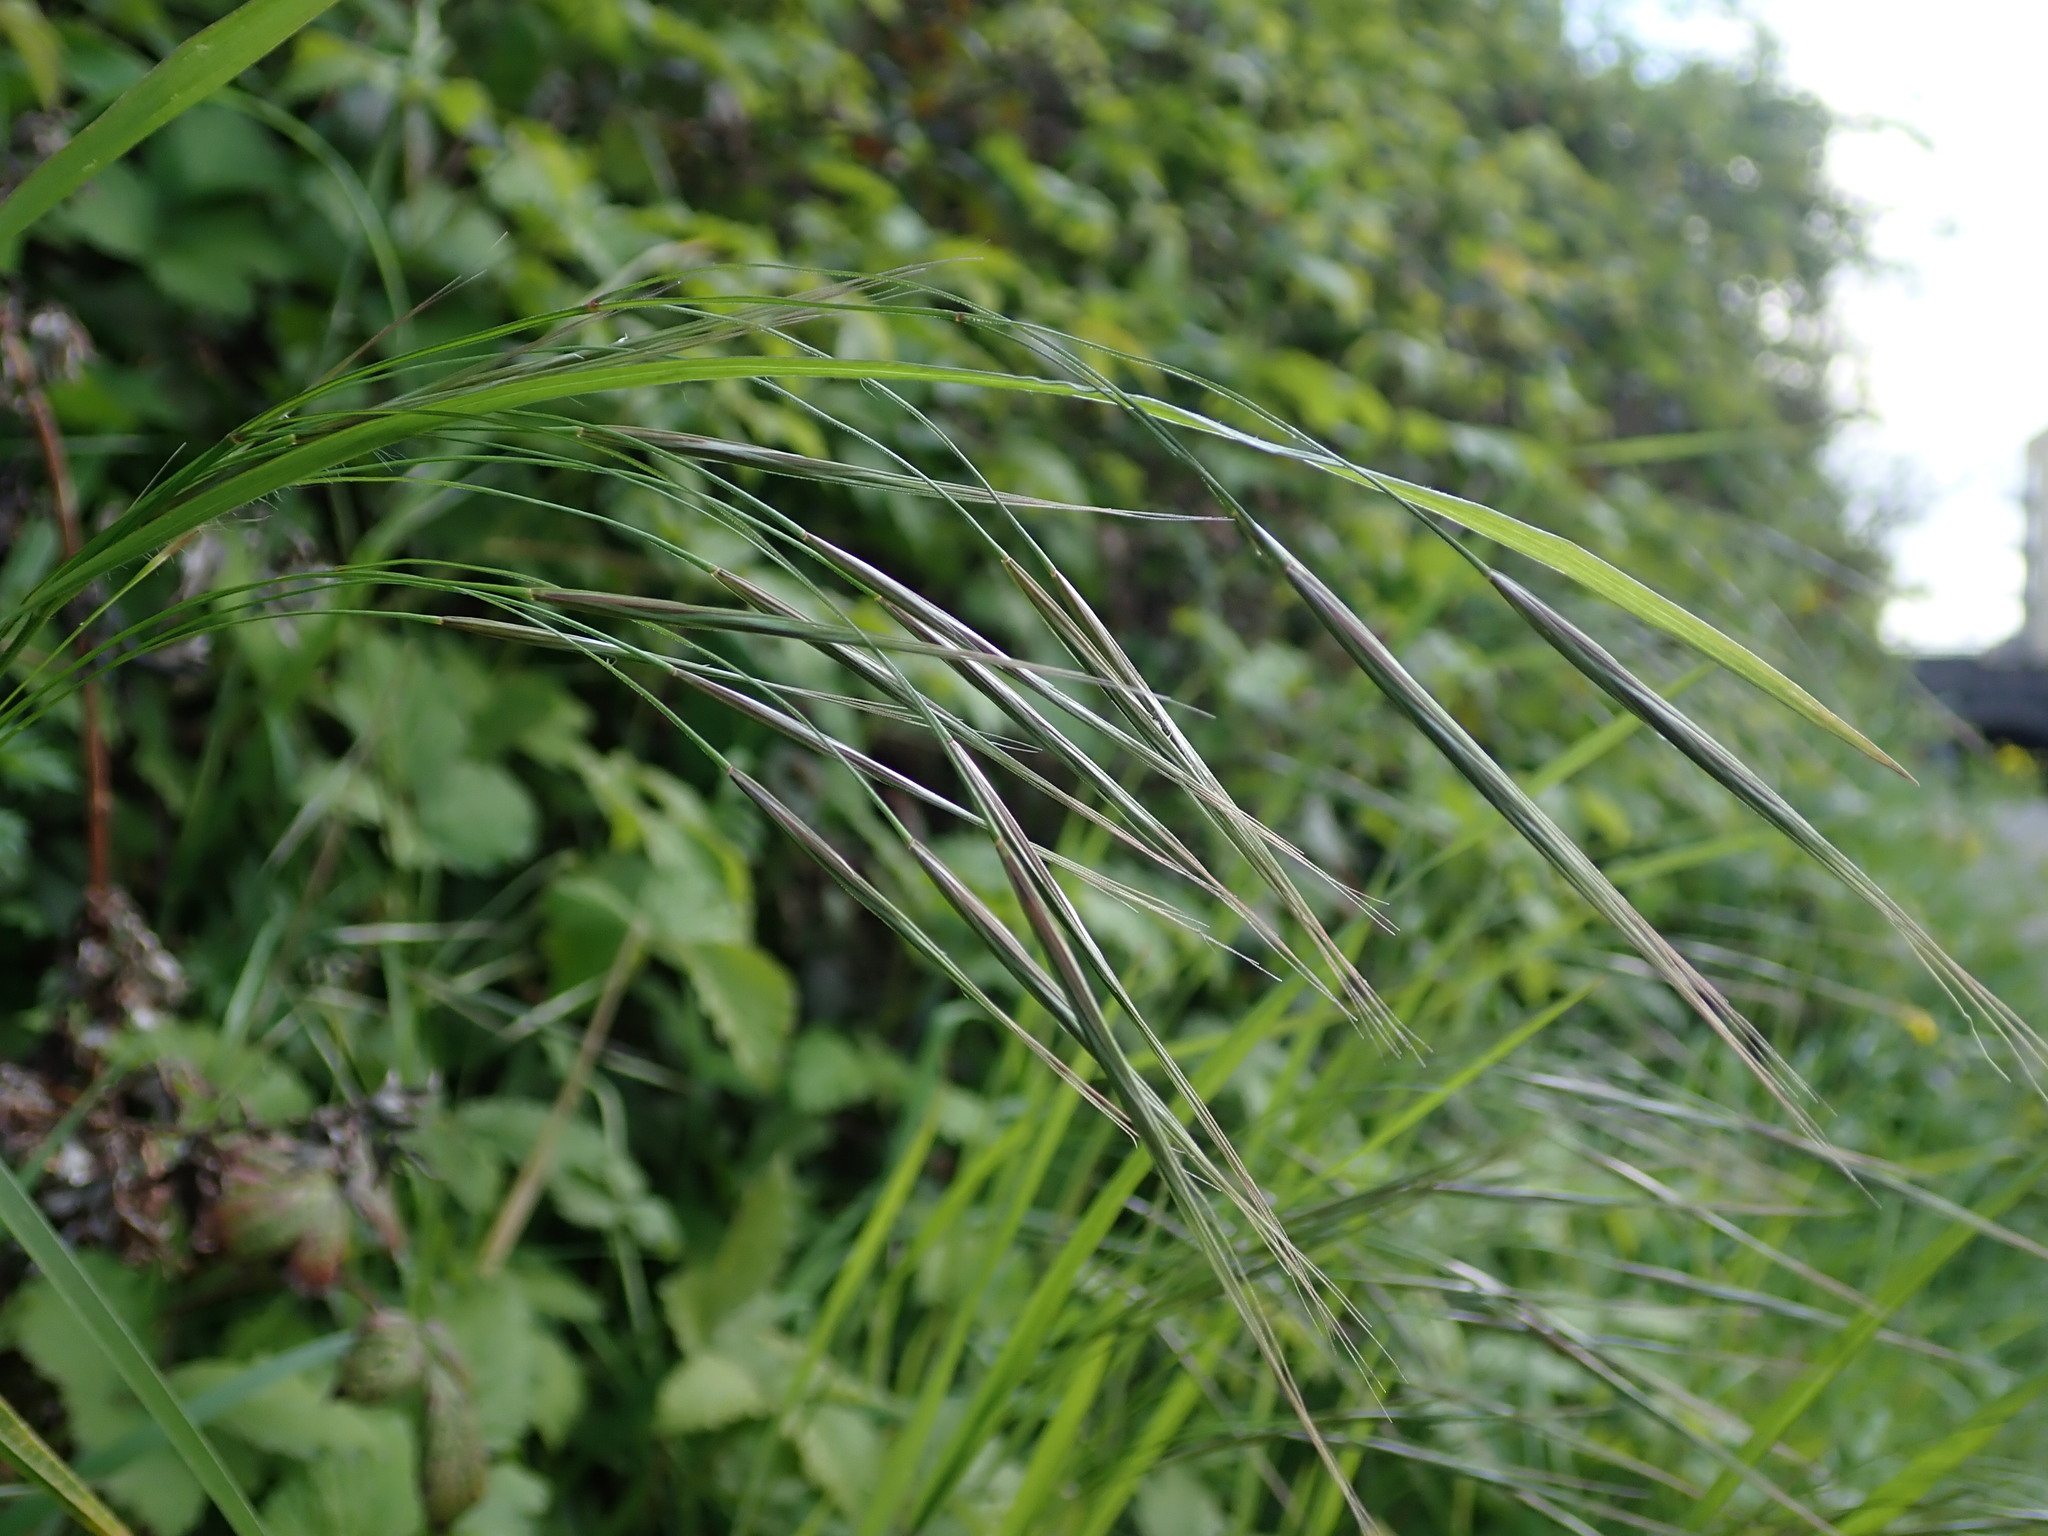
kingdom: Plantae
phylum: Tracheophyta
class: Liliopsida
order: Poales
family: Poaceae
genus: Bromus
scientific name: Bromus sterilis
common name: Poverty brome
